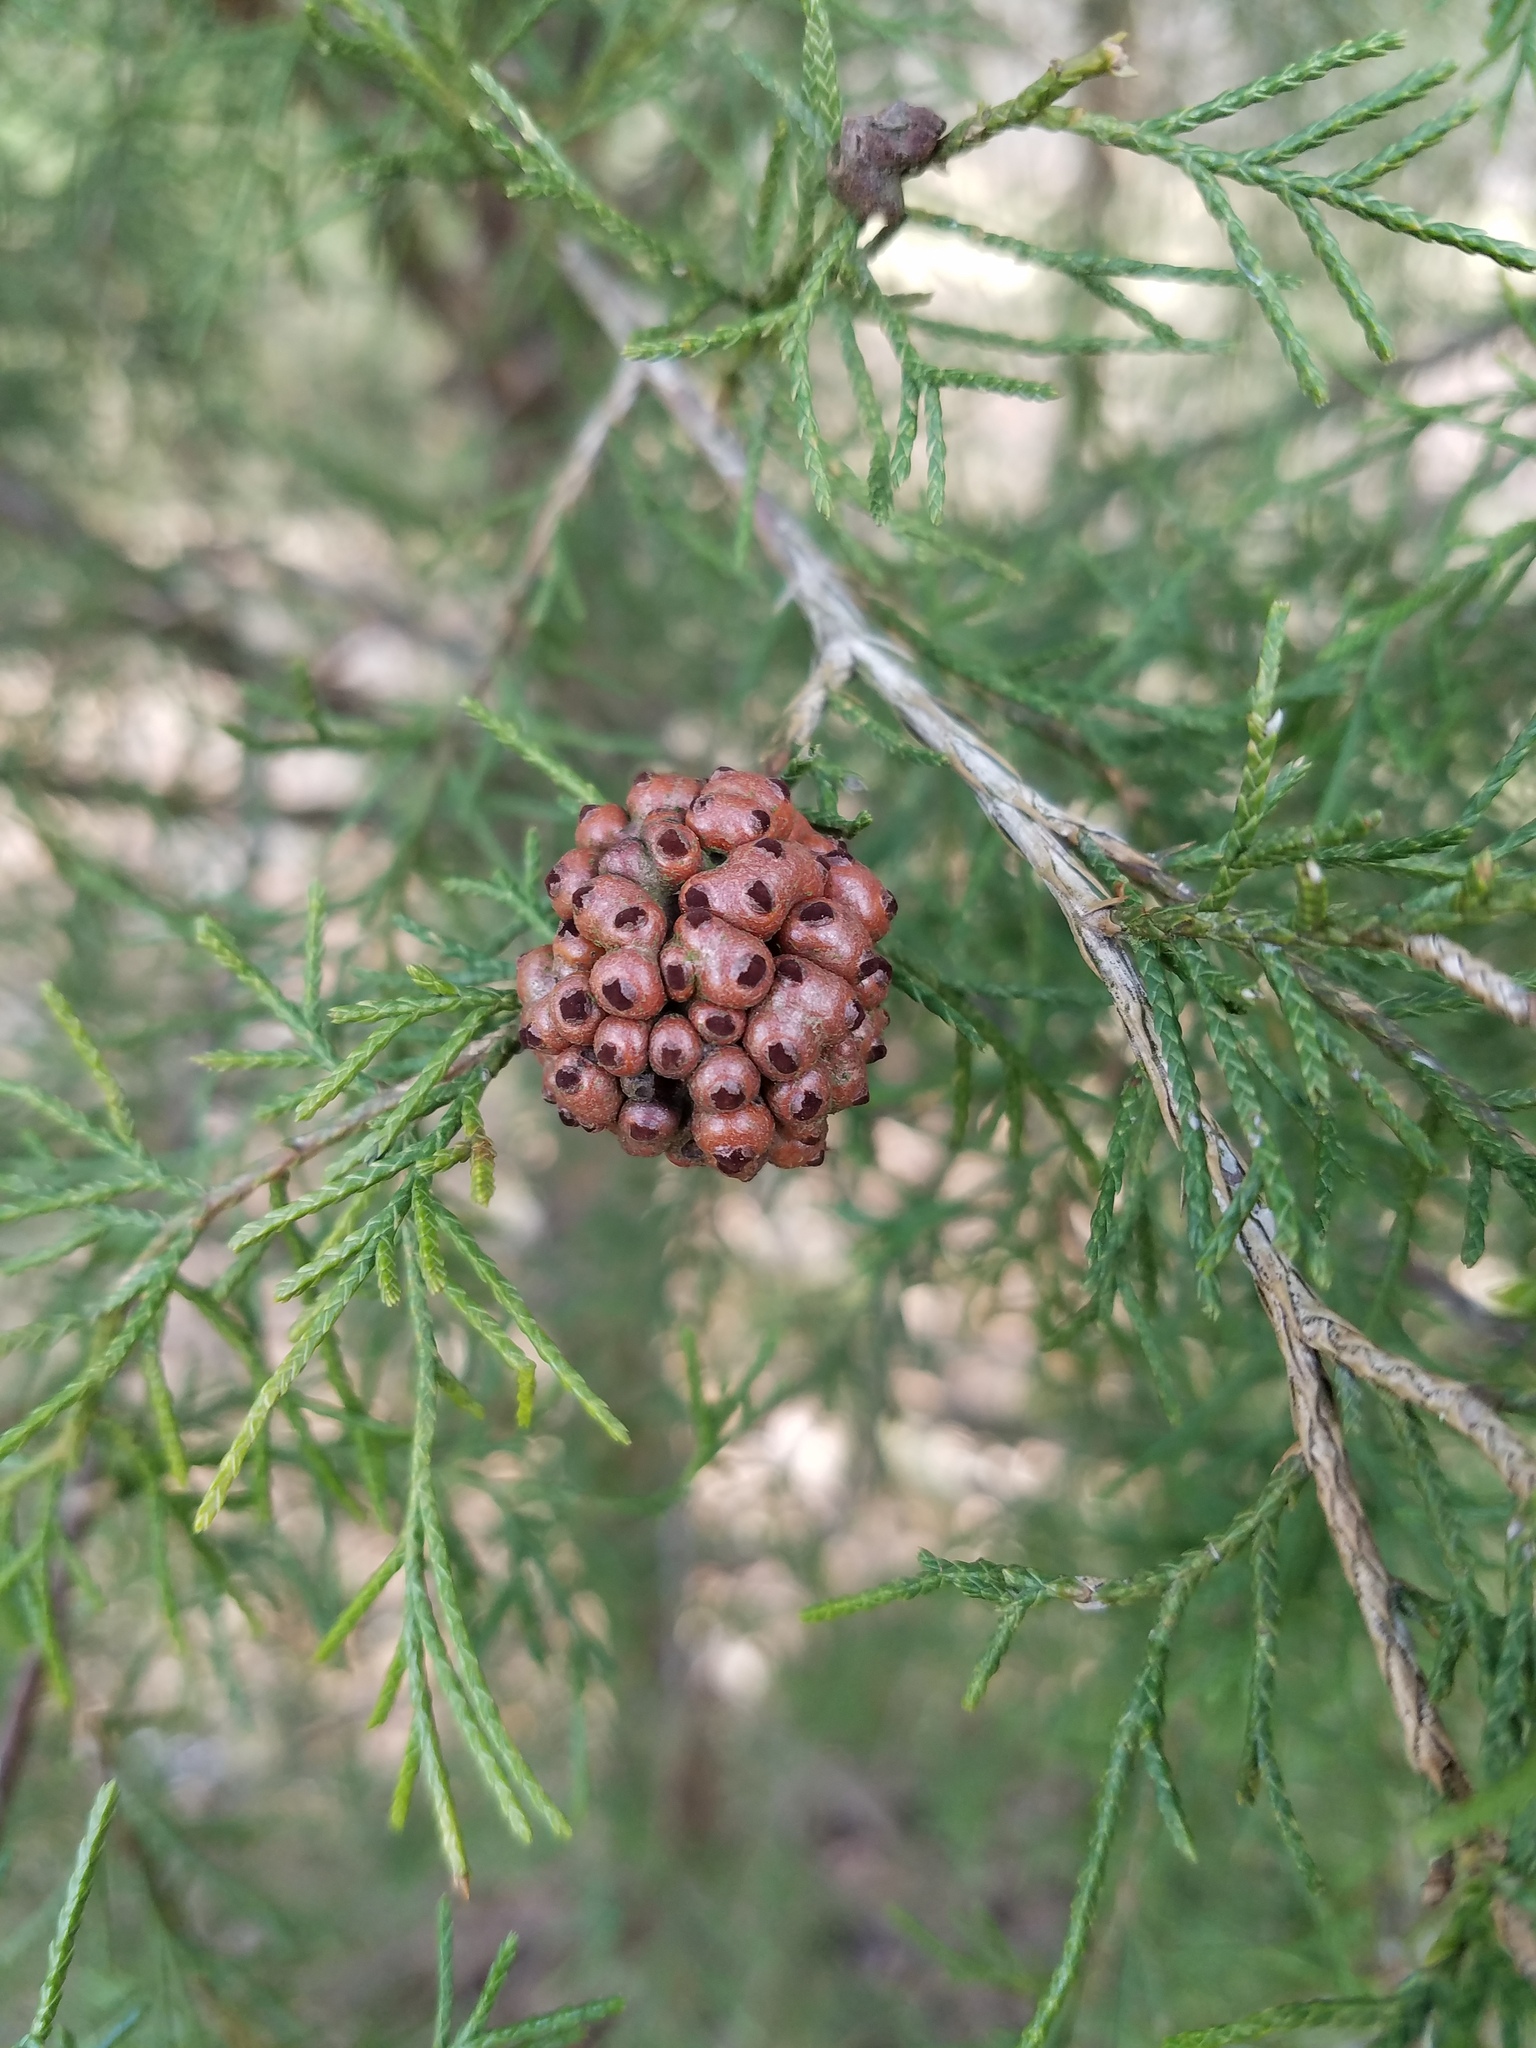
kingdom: Fungi
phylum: Basidiomycota
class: Pucciniomycetes
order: Pucciniales
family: Gymnosporangiaceae
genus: Gymnosporangium
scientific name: Gymnosporangium juniperi-virginianae
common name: Juniper-apple rust
